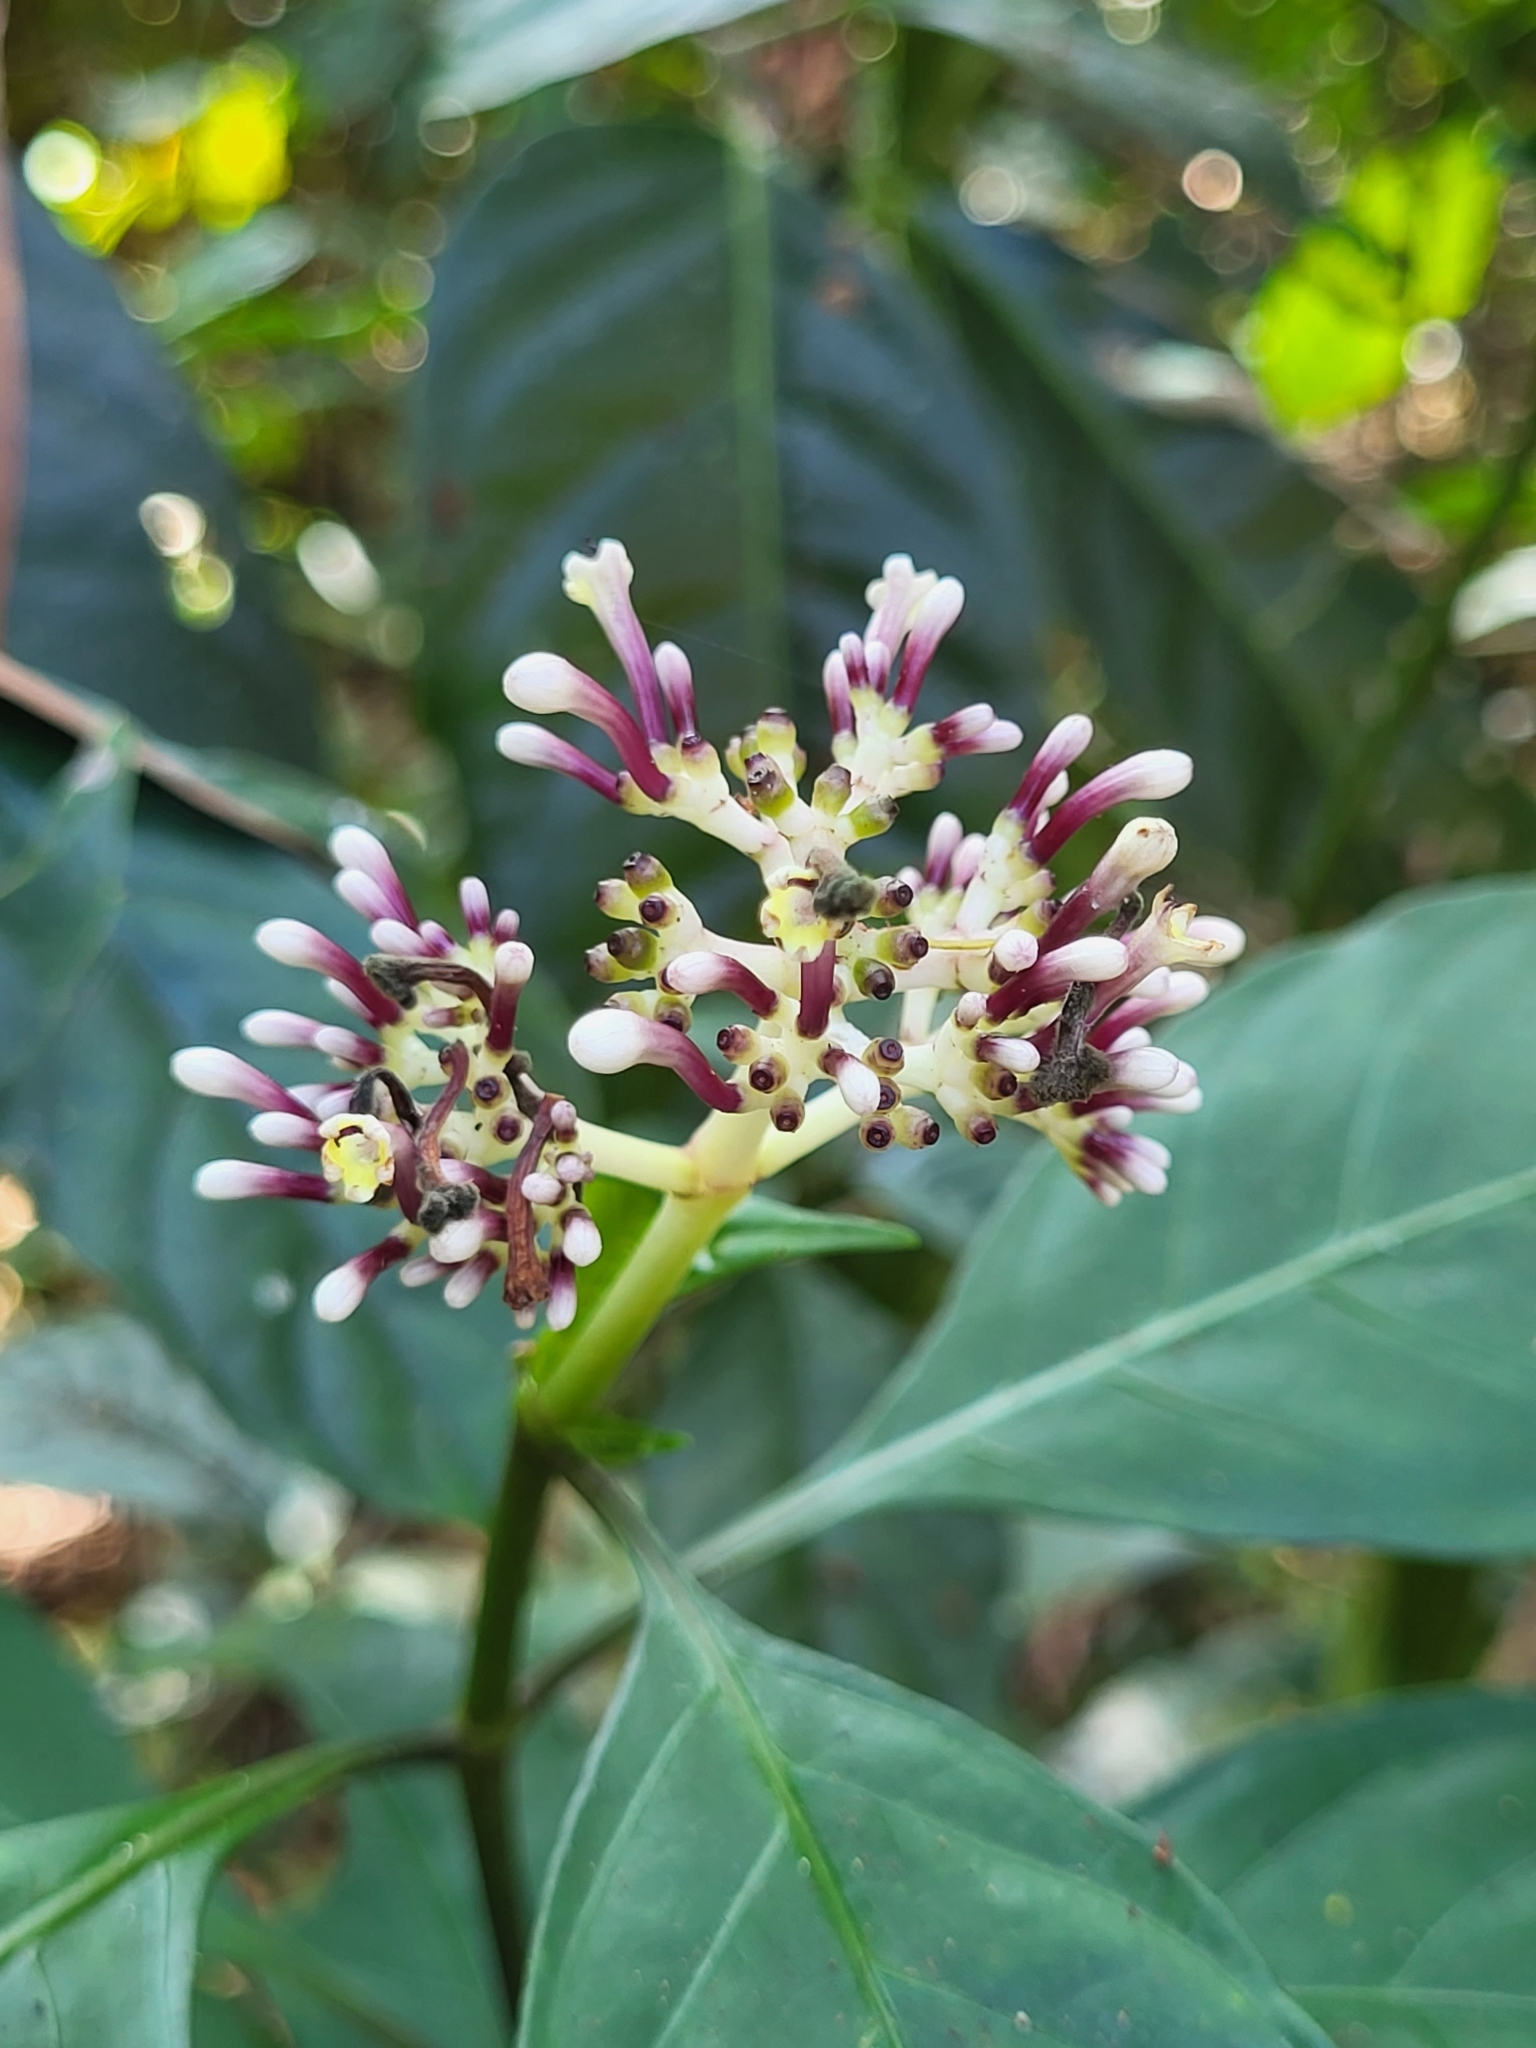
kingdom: Plantae
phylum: Tracheophyta
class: Magnoliopsida
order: Gentianales
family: Rubiaceae
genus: Chassalia
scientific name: Chassalia curviflora
